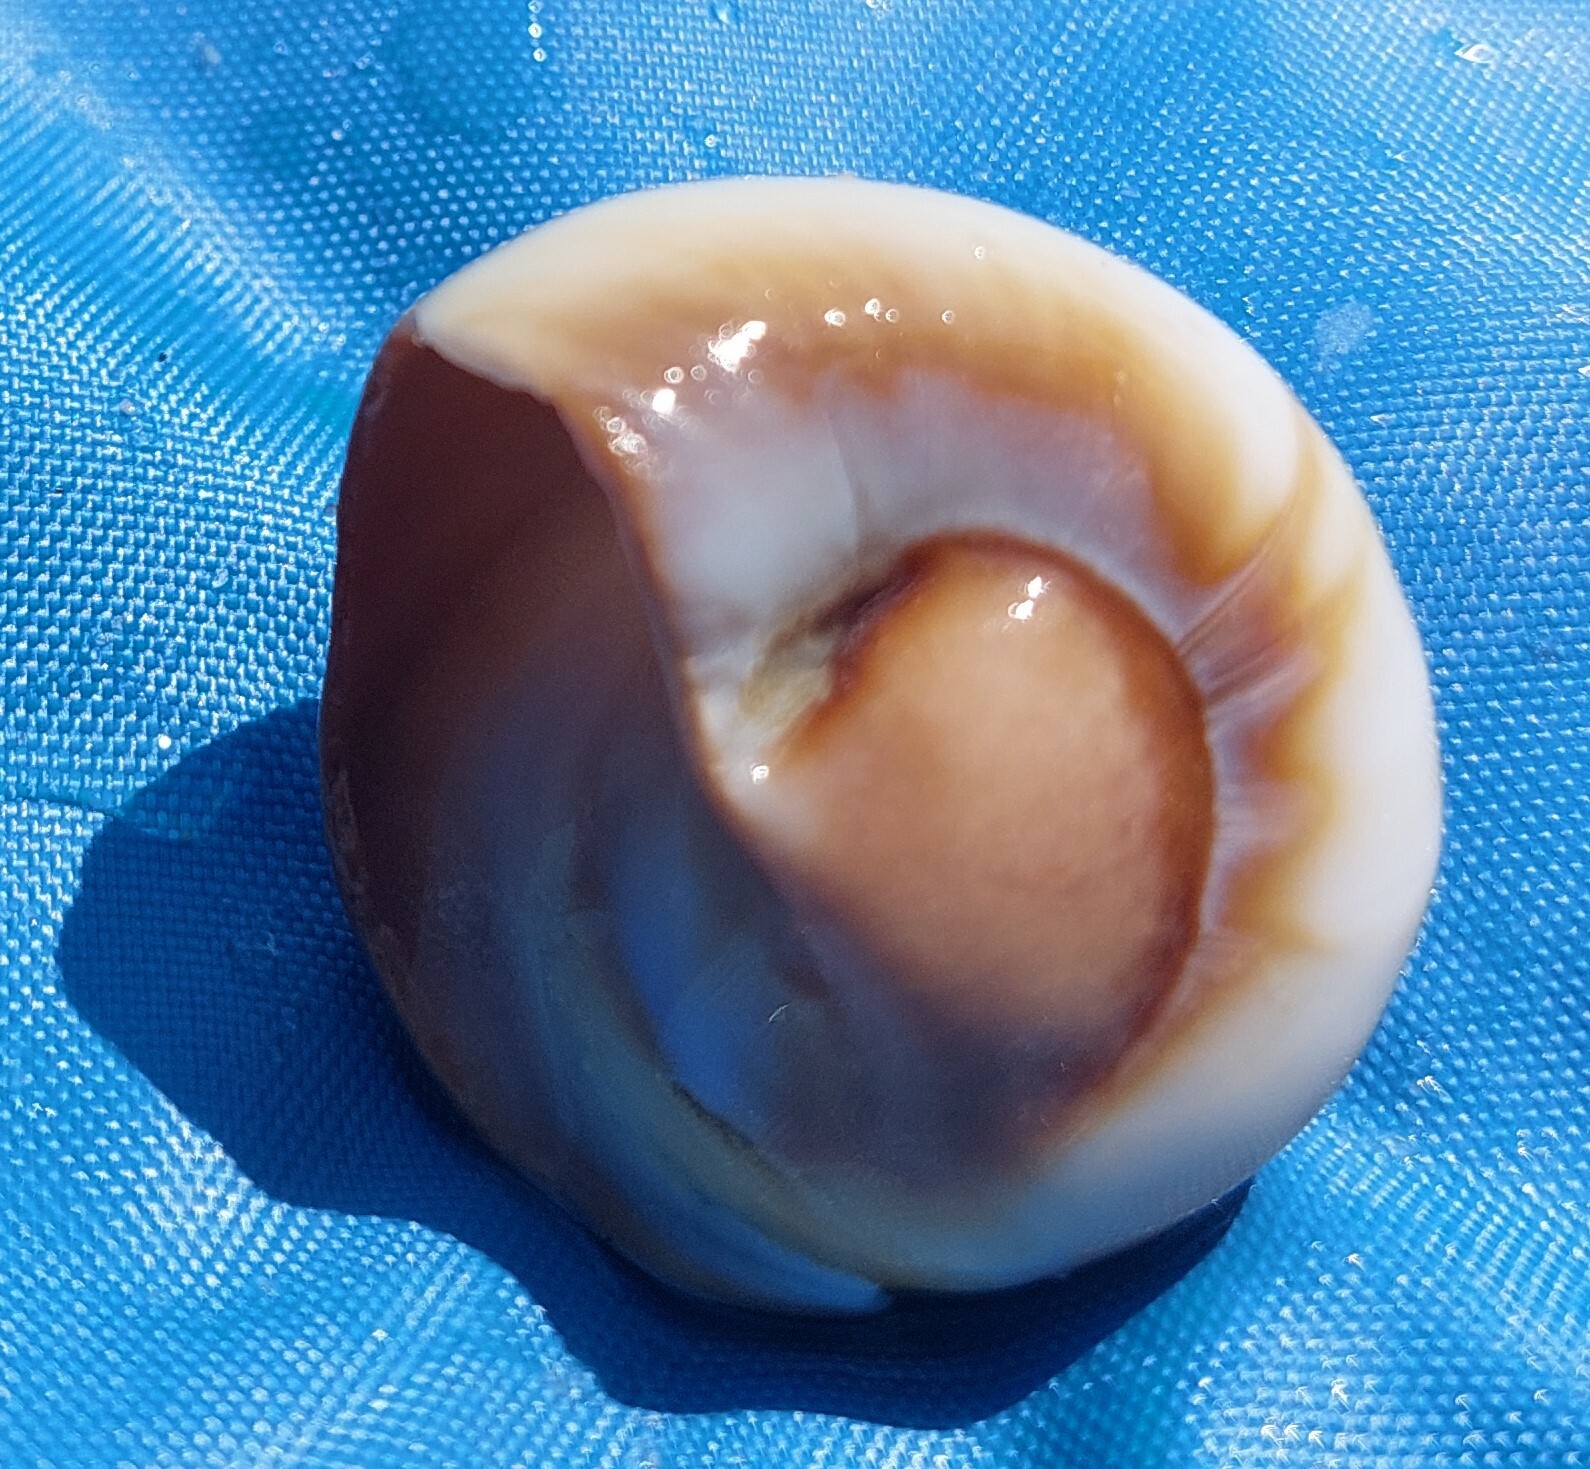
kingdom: Animalia
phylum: Mollusca
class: Gastropoda
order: Littorinimorpha
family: Naticidae
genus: Neverita
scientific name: Neverita duplicata
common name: Lobed moonsnail
